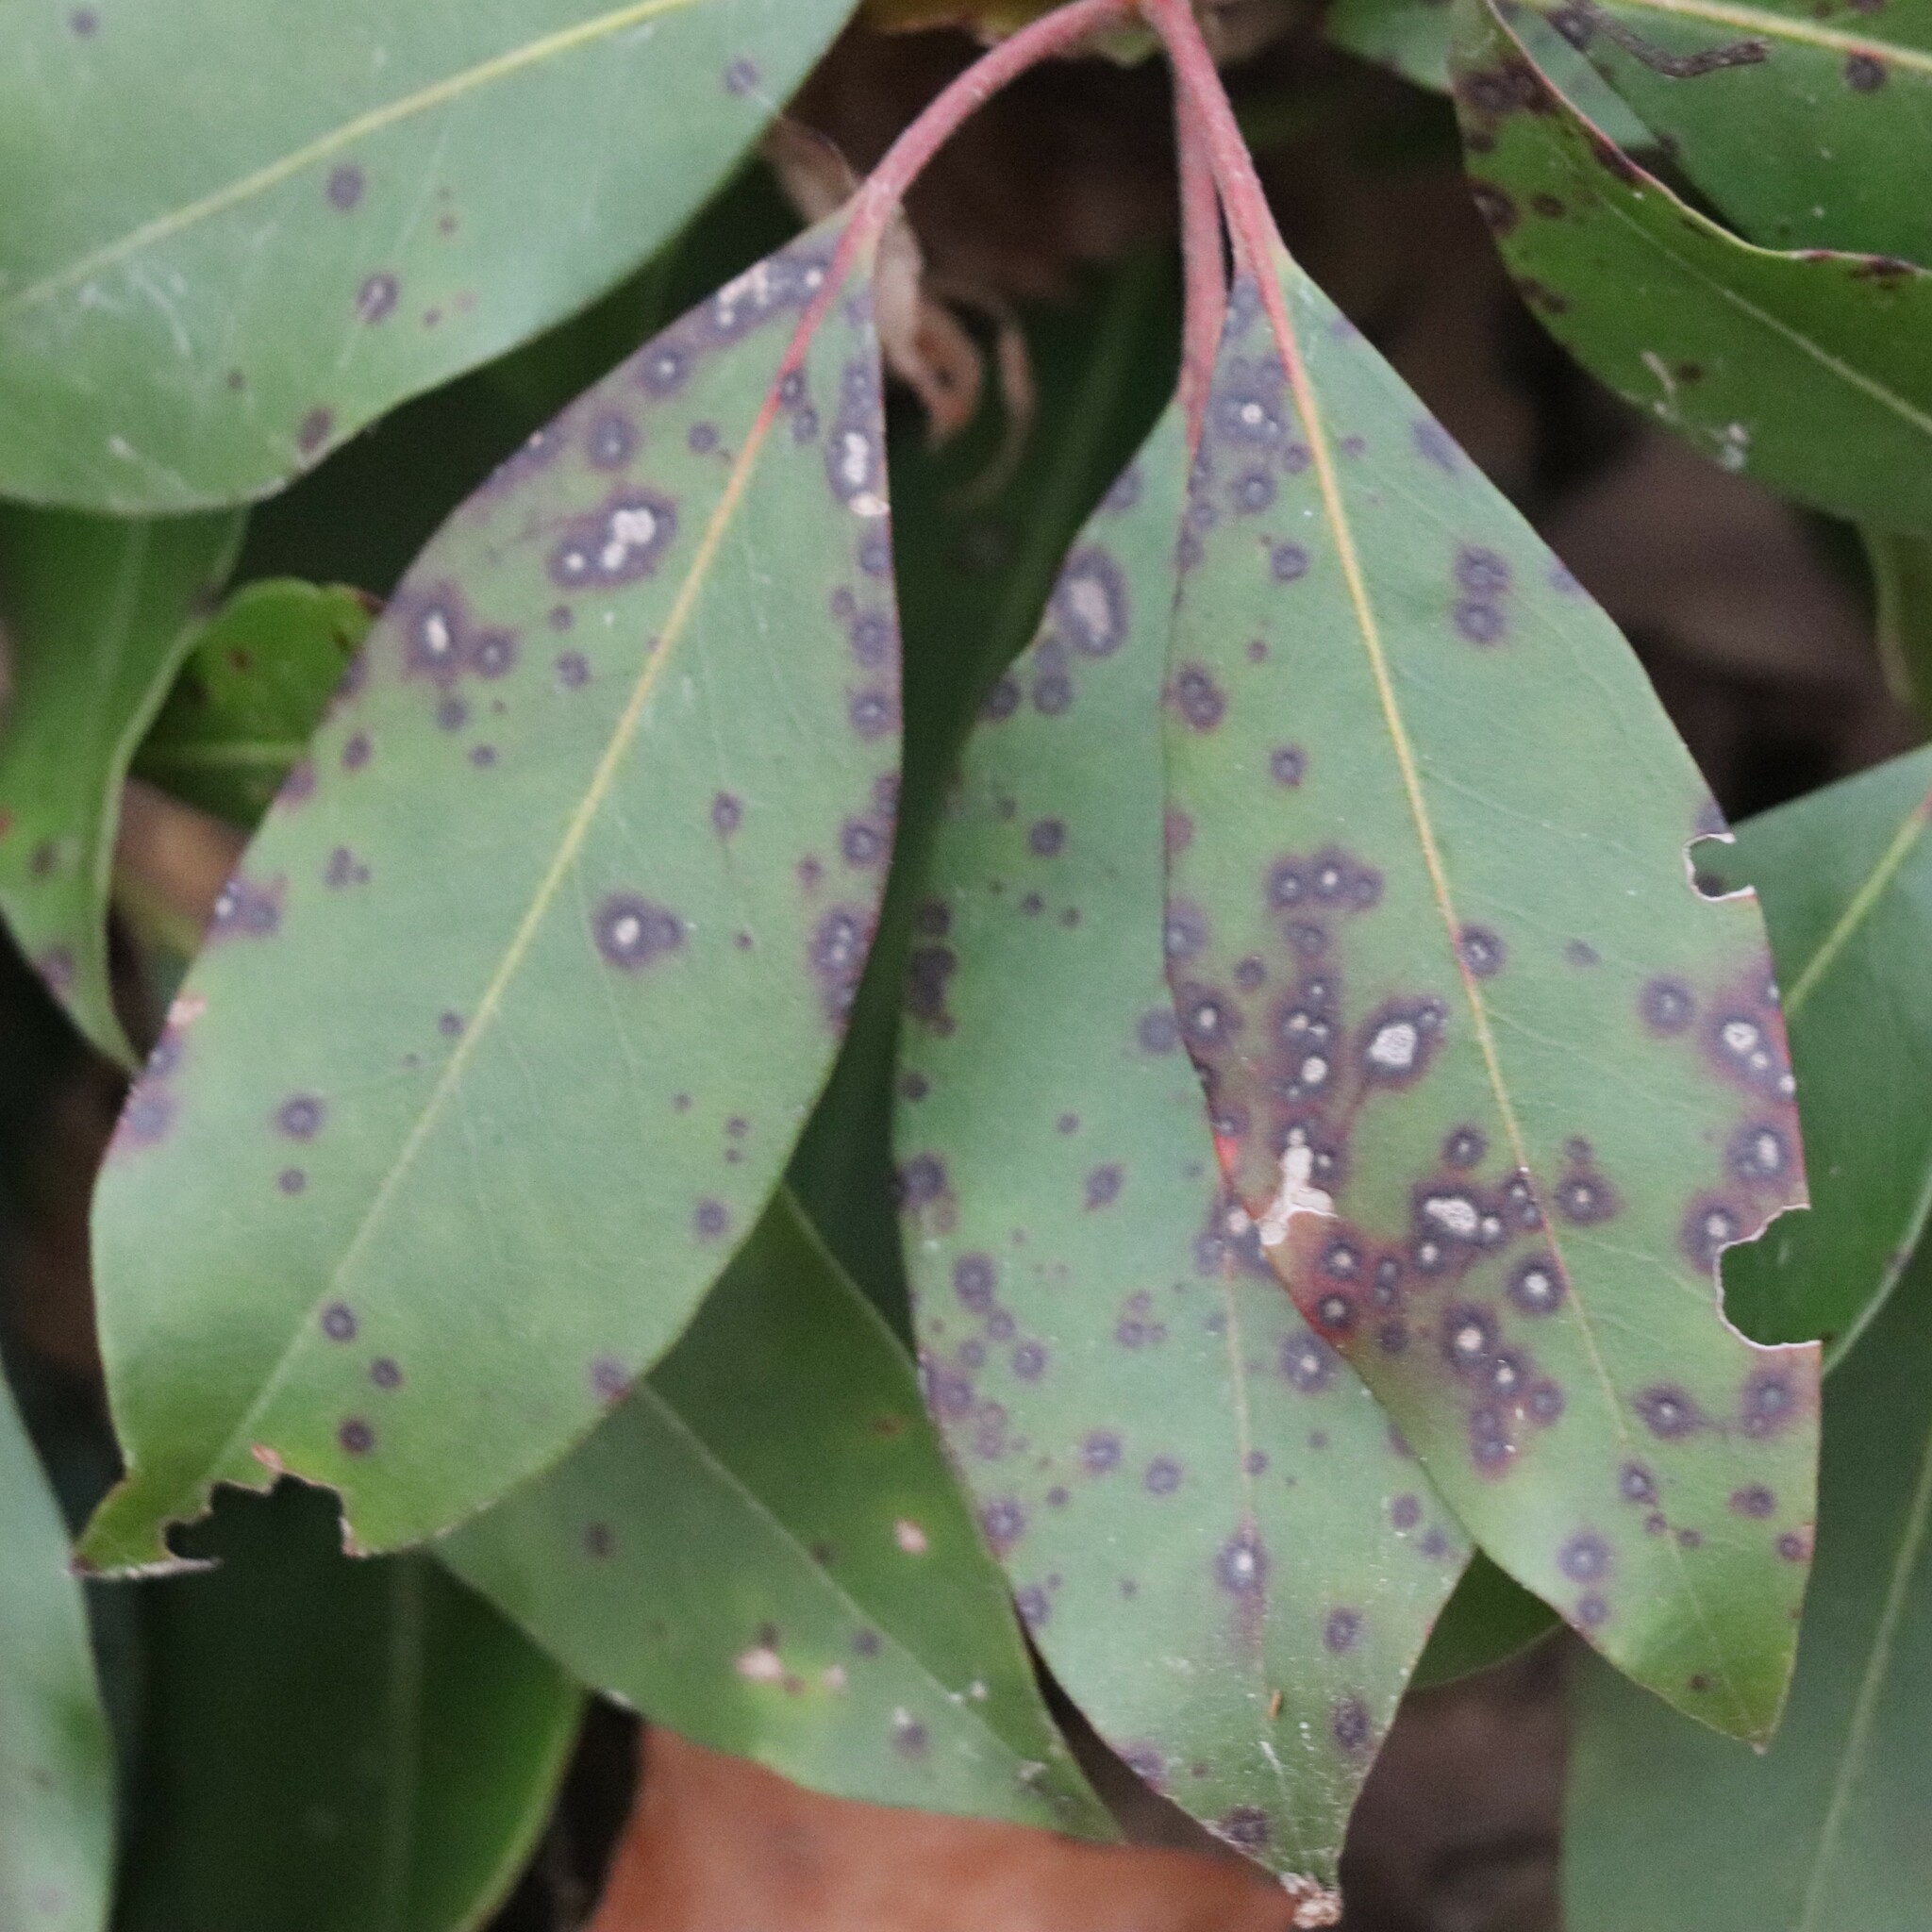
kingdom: Fungi
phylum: Ascomycota
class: Dothideomycetes
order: Mycosphaerellales
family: Mycosphaerellaceae
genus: Mycosphaerella
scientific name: Mycosphaerella colorata
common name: Mountain laurel leaf spot
